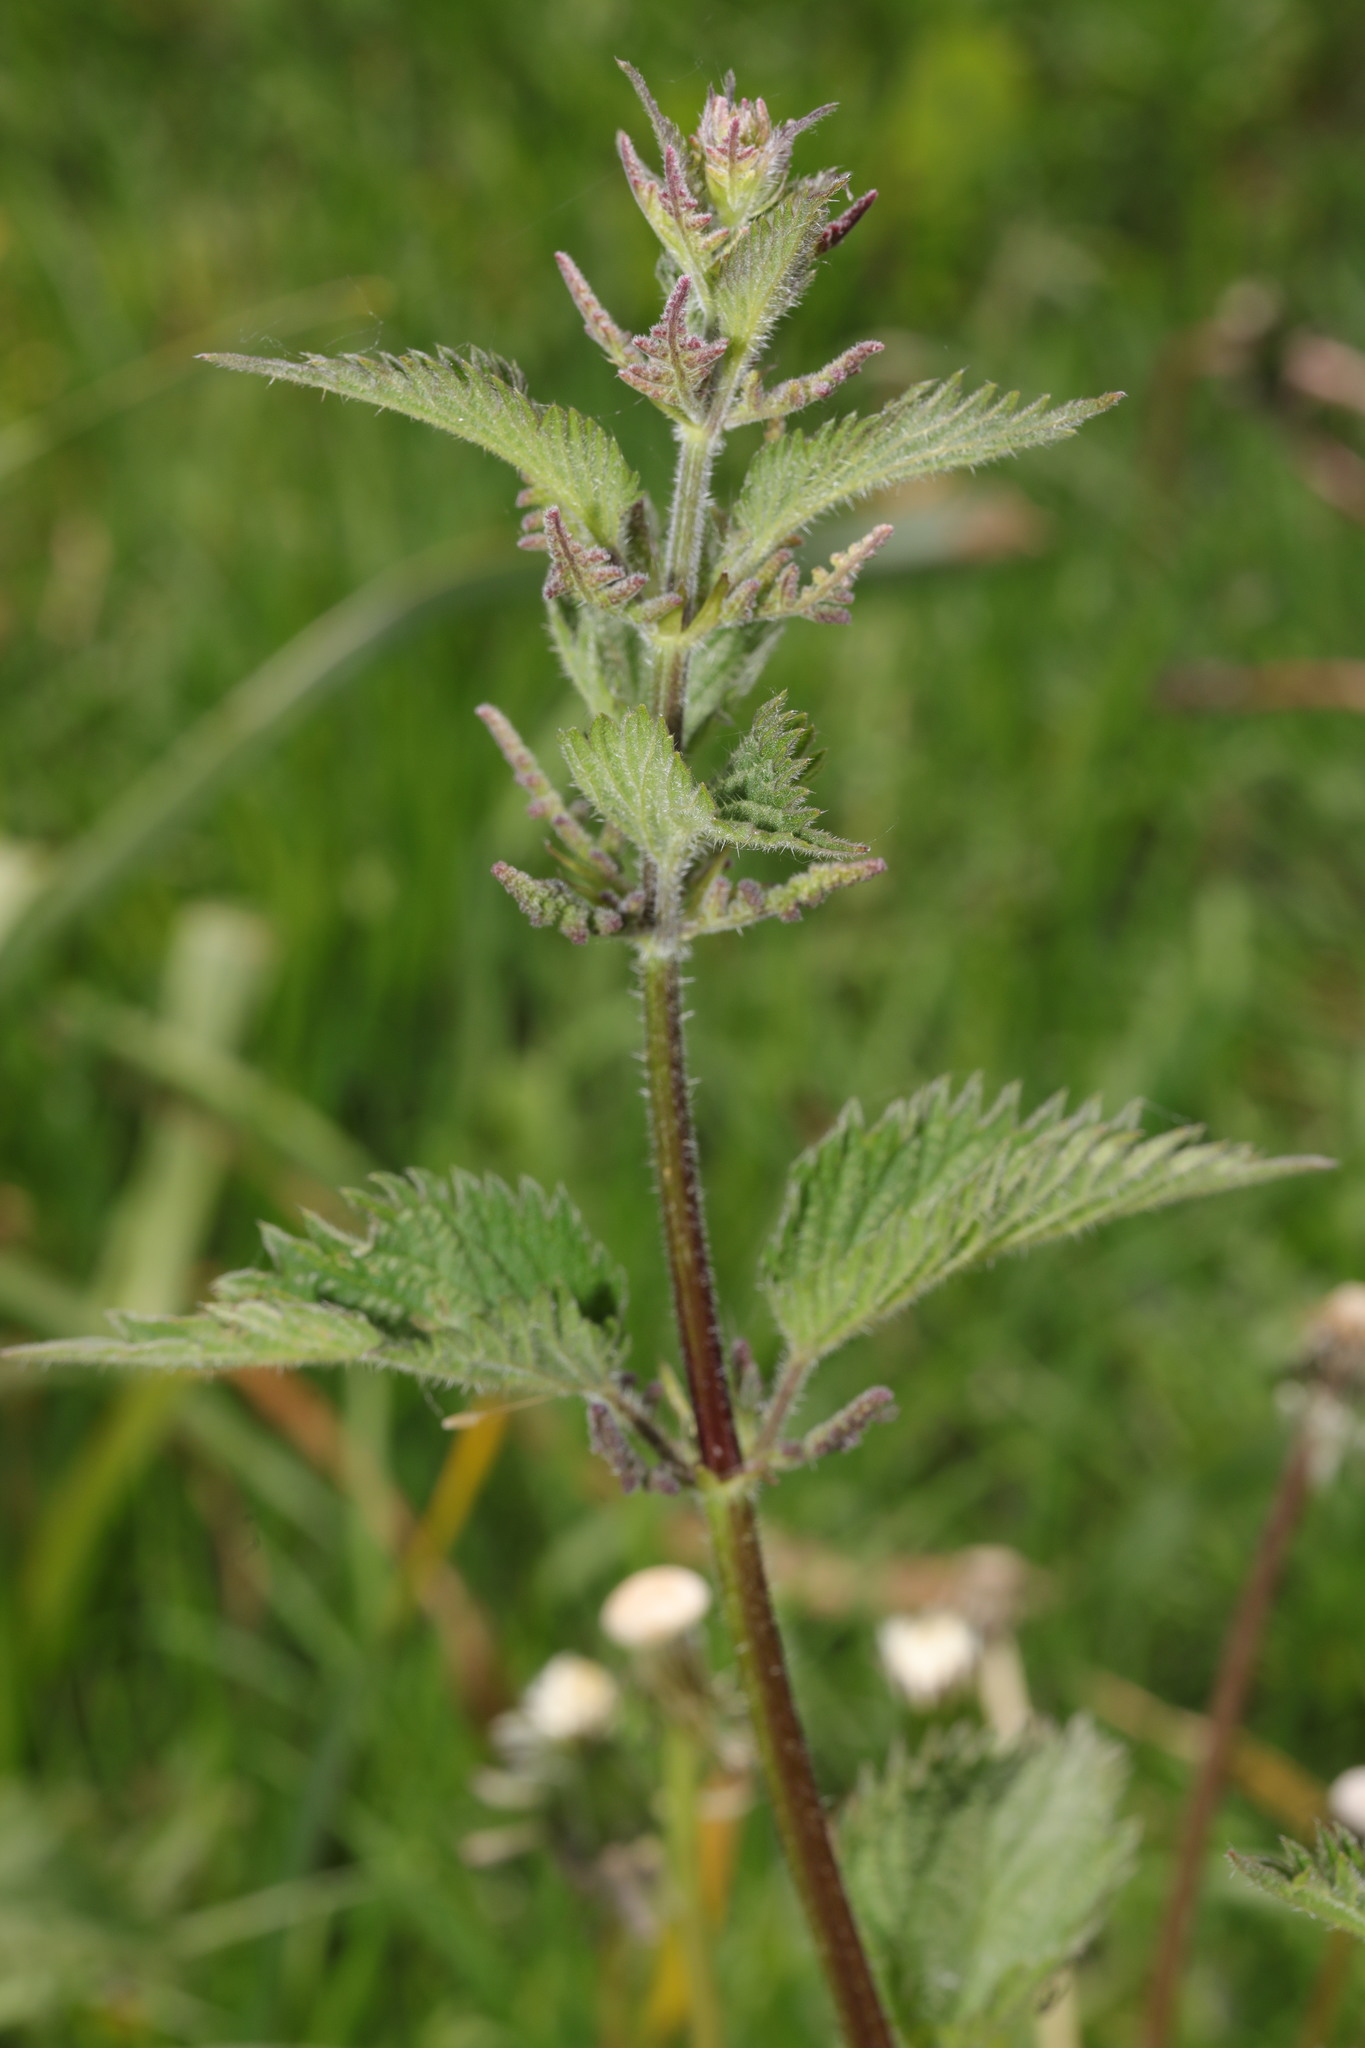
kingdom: Plantae
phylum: Tracheophyta
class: Magnoliopsida
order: Rosales
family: Urticaceae
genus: Urtica
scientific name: Urtica dioica
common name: Common nettle
